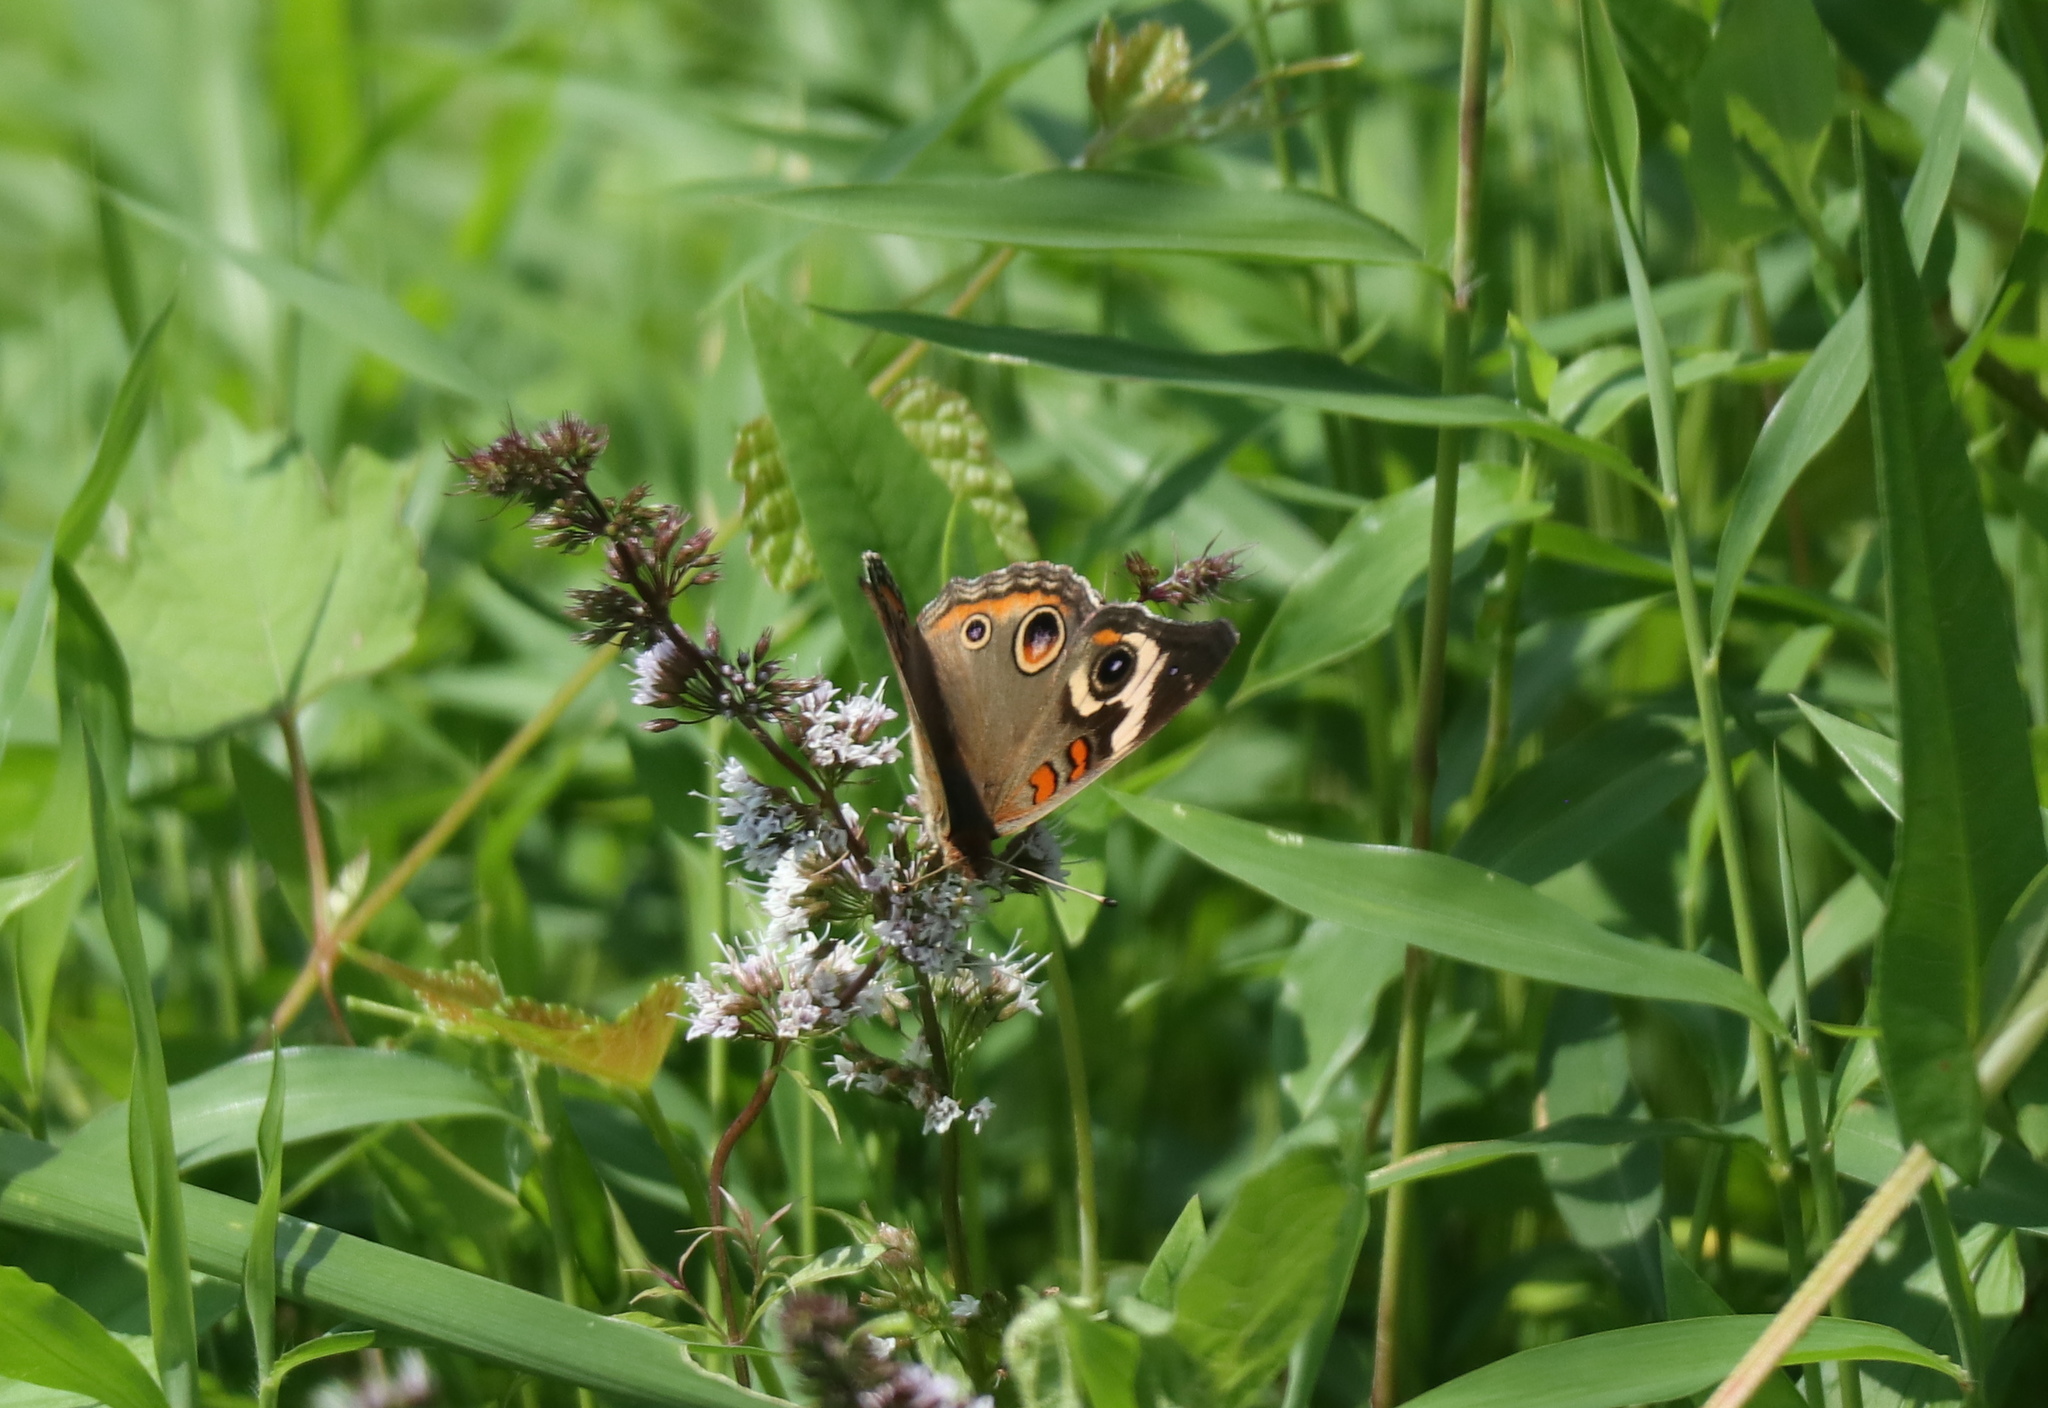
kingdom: Animalia
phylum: Arthropoda
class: Insecta
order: Lepidoptera
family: Nymphalidae
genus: Junonia
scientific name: Junonia coenia
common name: Common buckeye
